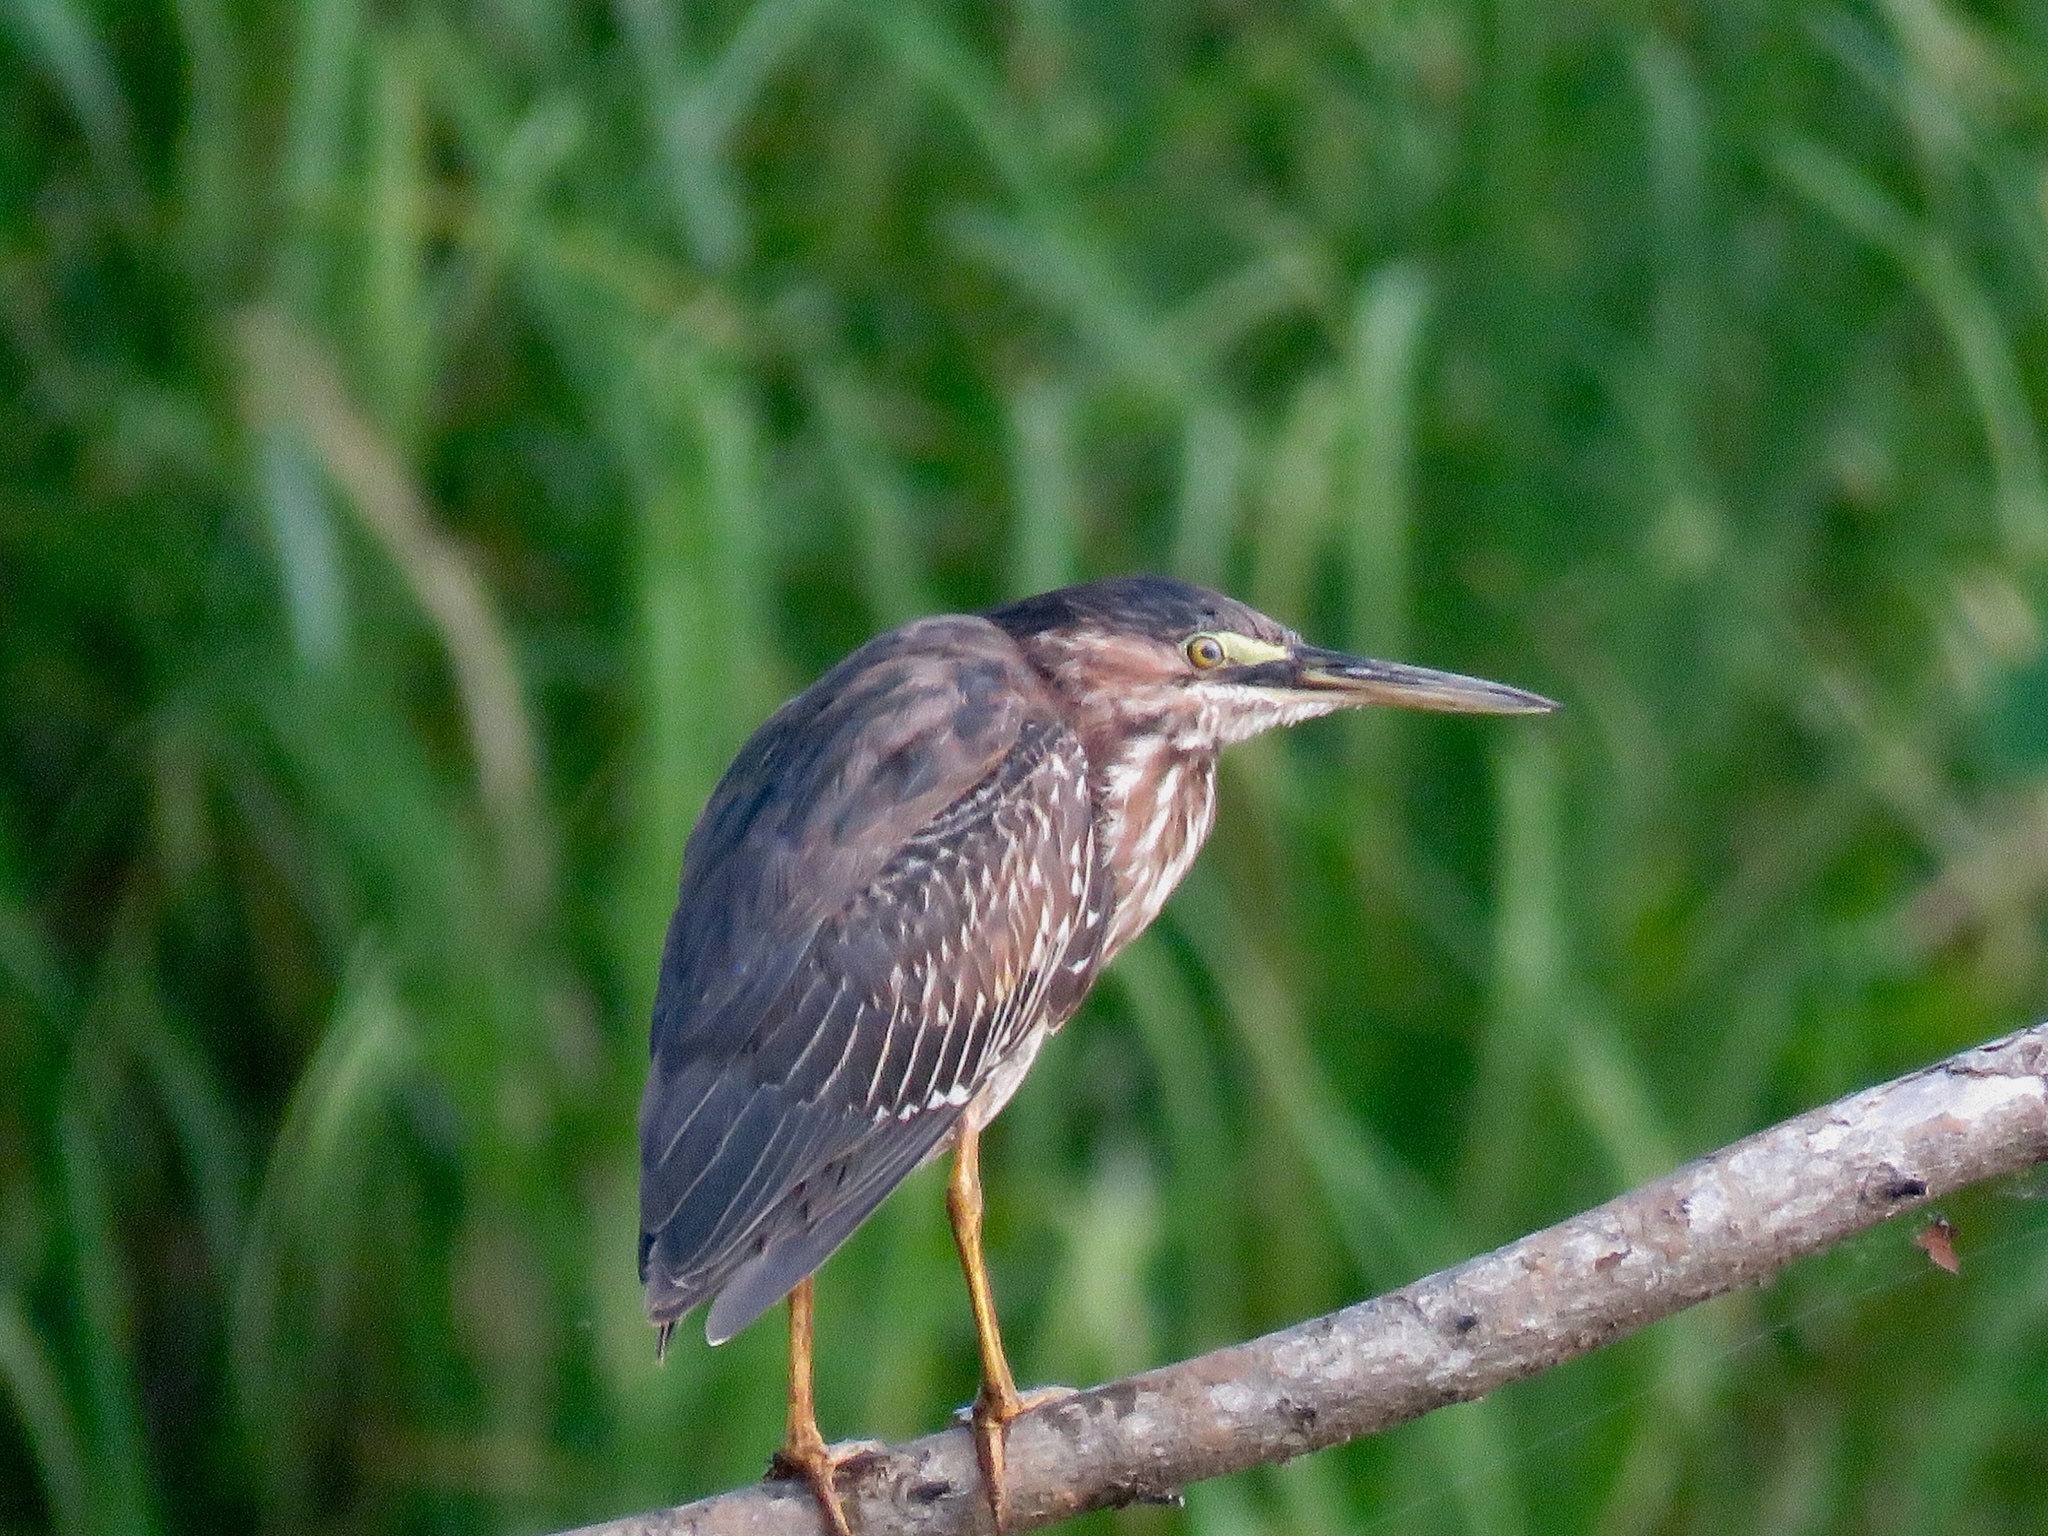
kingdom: Animalia
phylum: Chordata
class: Aves
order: Pelecaniformes
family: Ardeidae
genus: Butorides
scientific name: Butorides striata
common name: Striated heron
